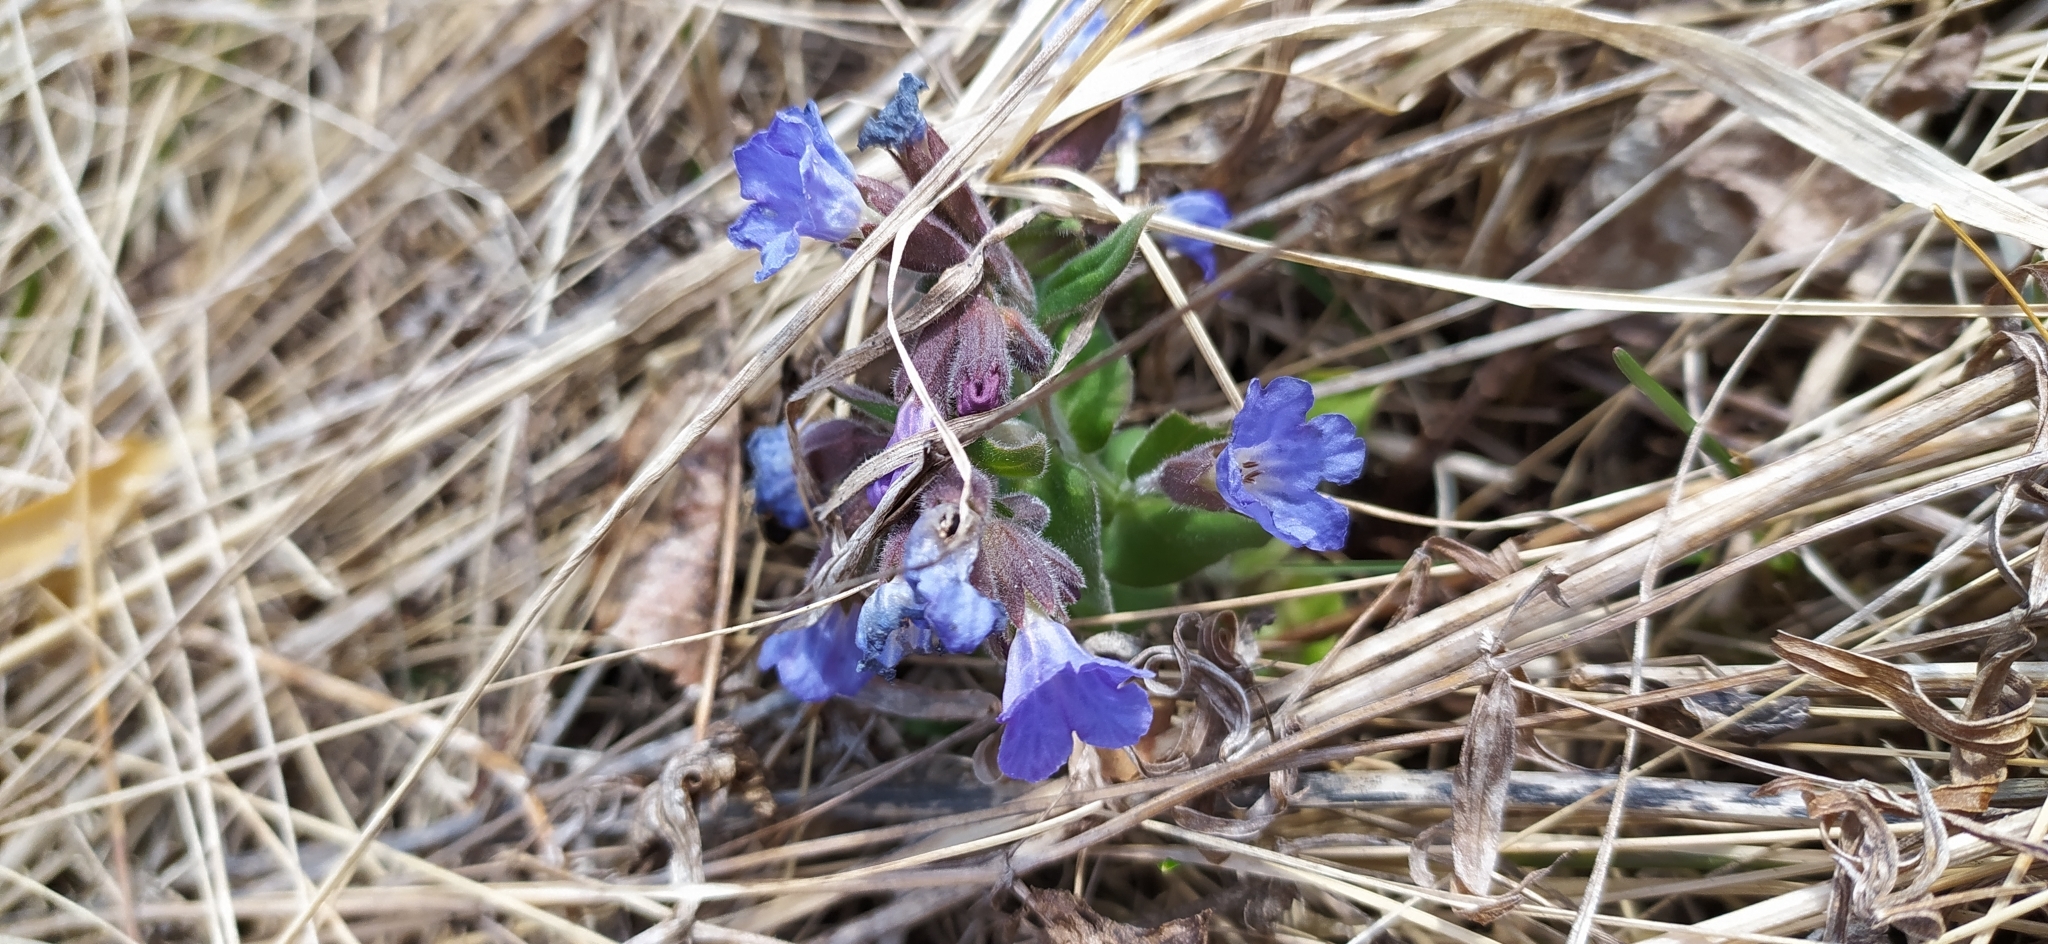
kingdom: Plantae
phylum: Tracheophyta
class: Magnoliopsida
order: Boraginales
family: Boraginaceae
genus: Pulmonaria
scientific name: Pulmonaria mollis
